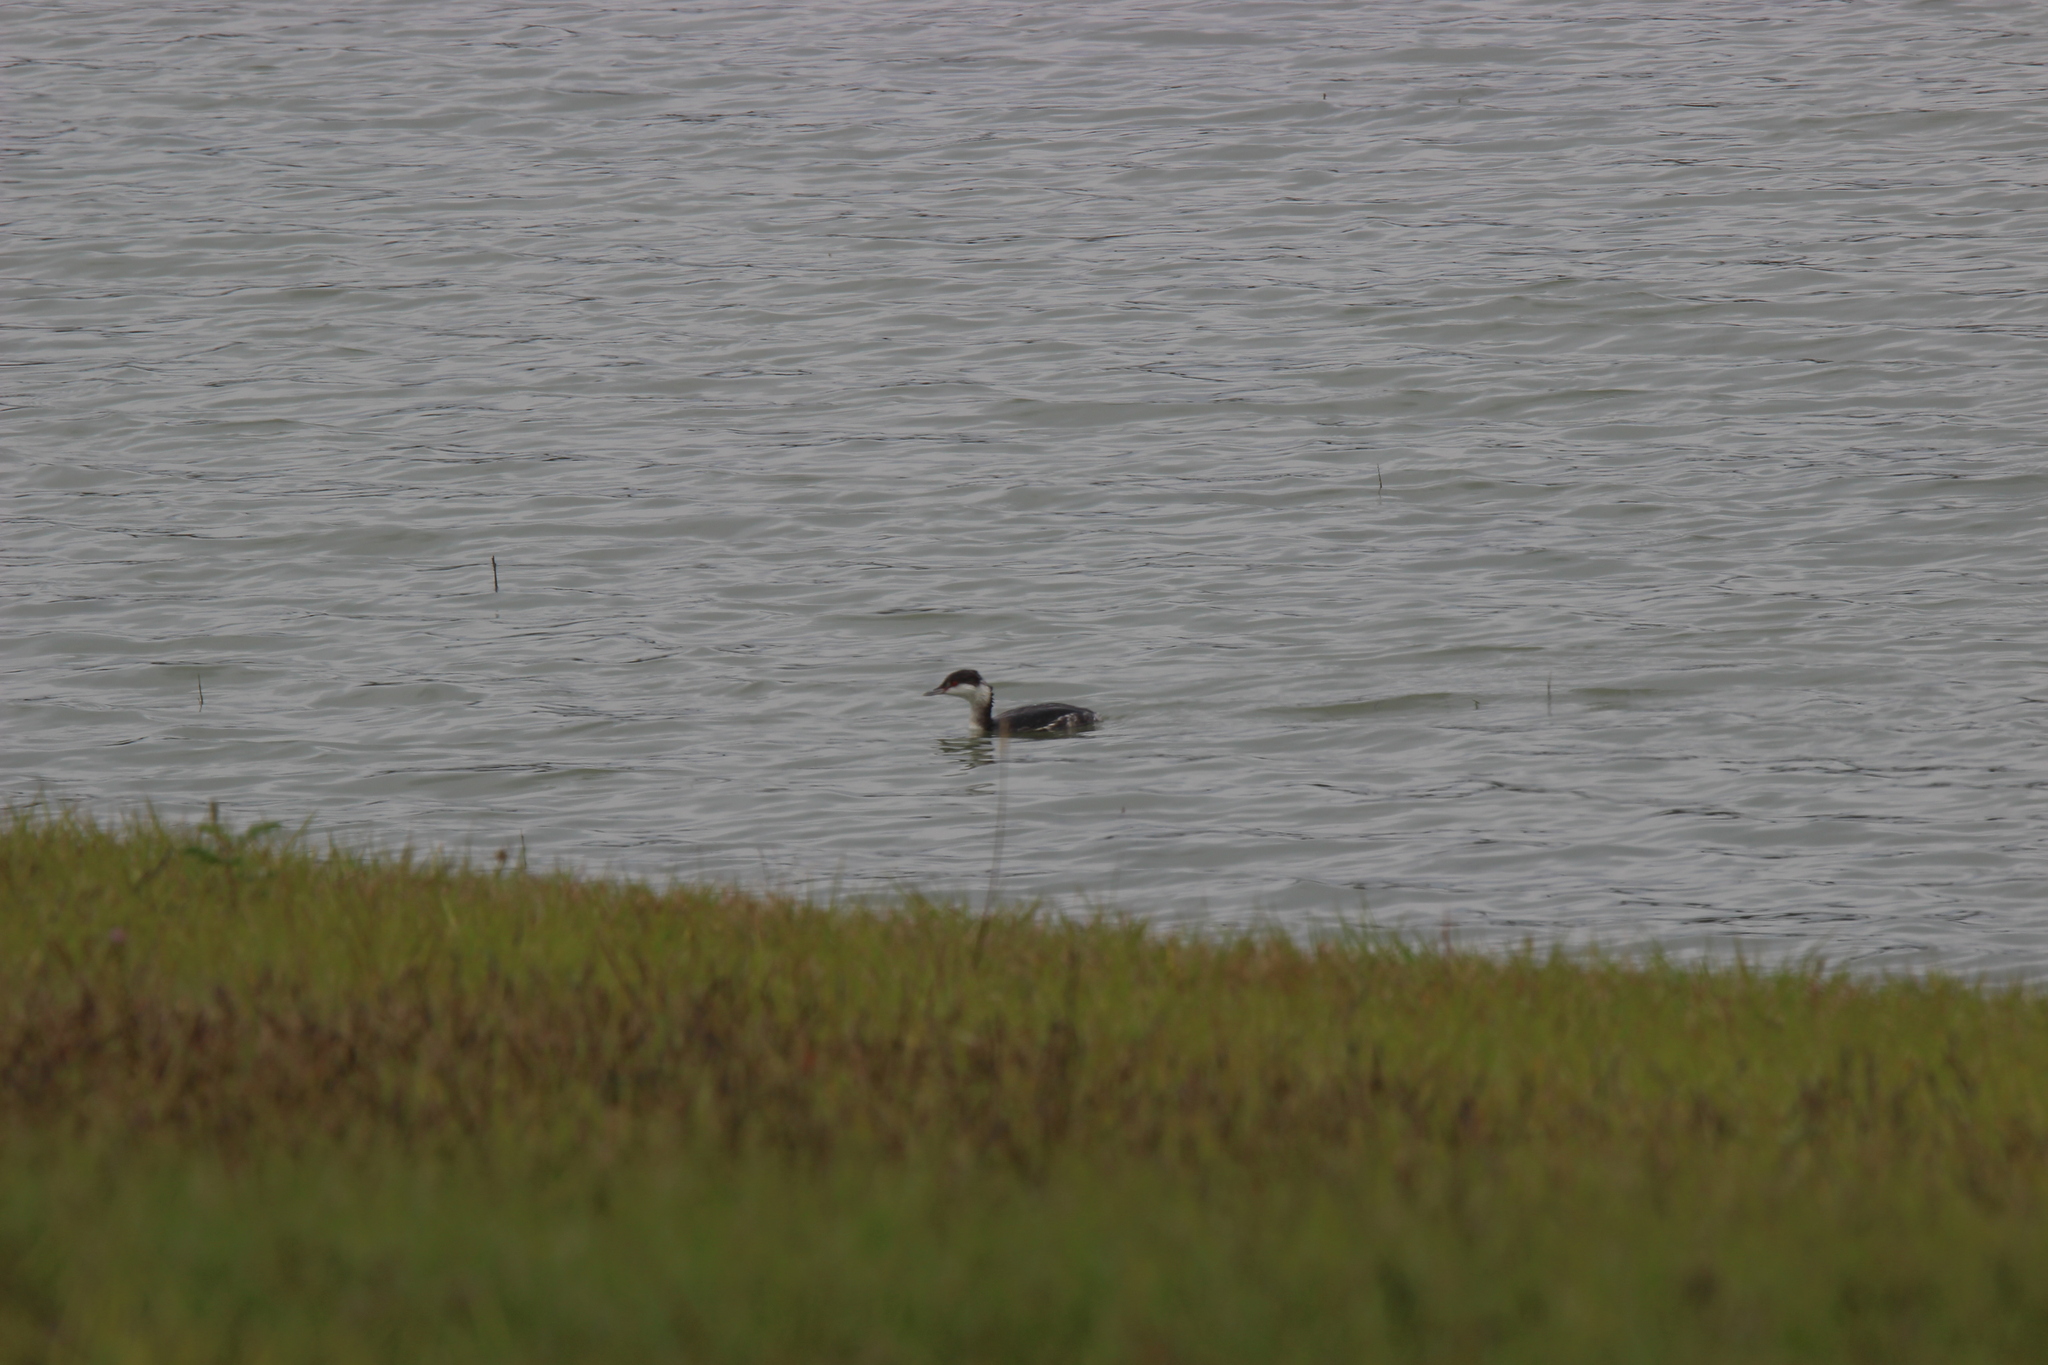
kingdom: Animalia
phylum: Chordata
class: Aves
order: Podicipediformes
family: Podicipedidae
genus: Podiceps
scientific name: Podiceps auritus
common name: Horned grebe
